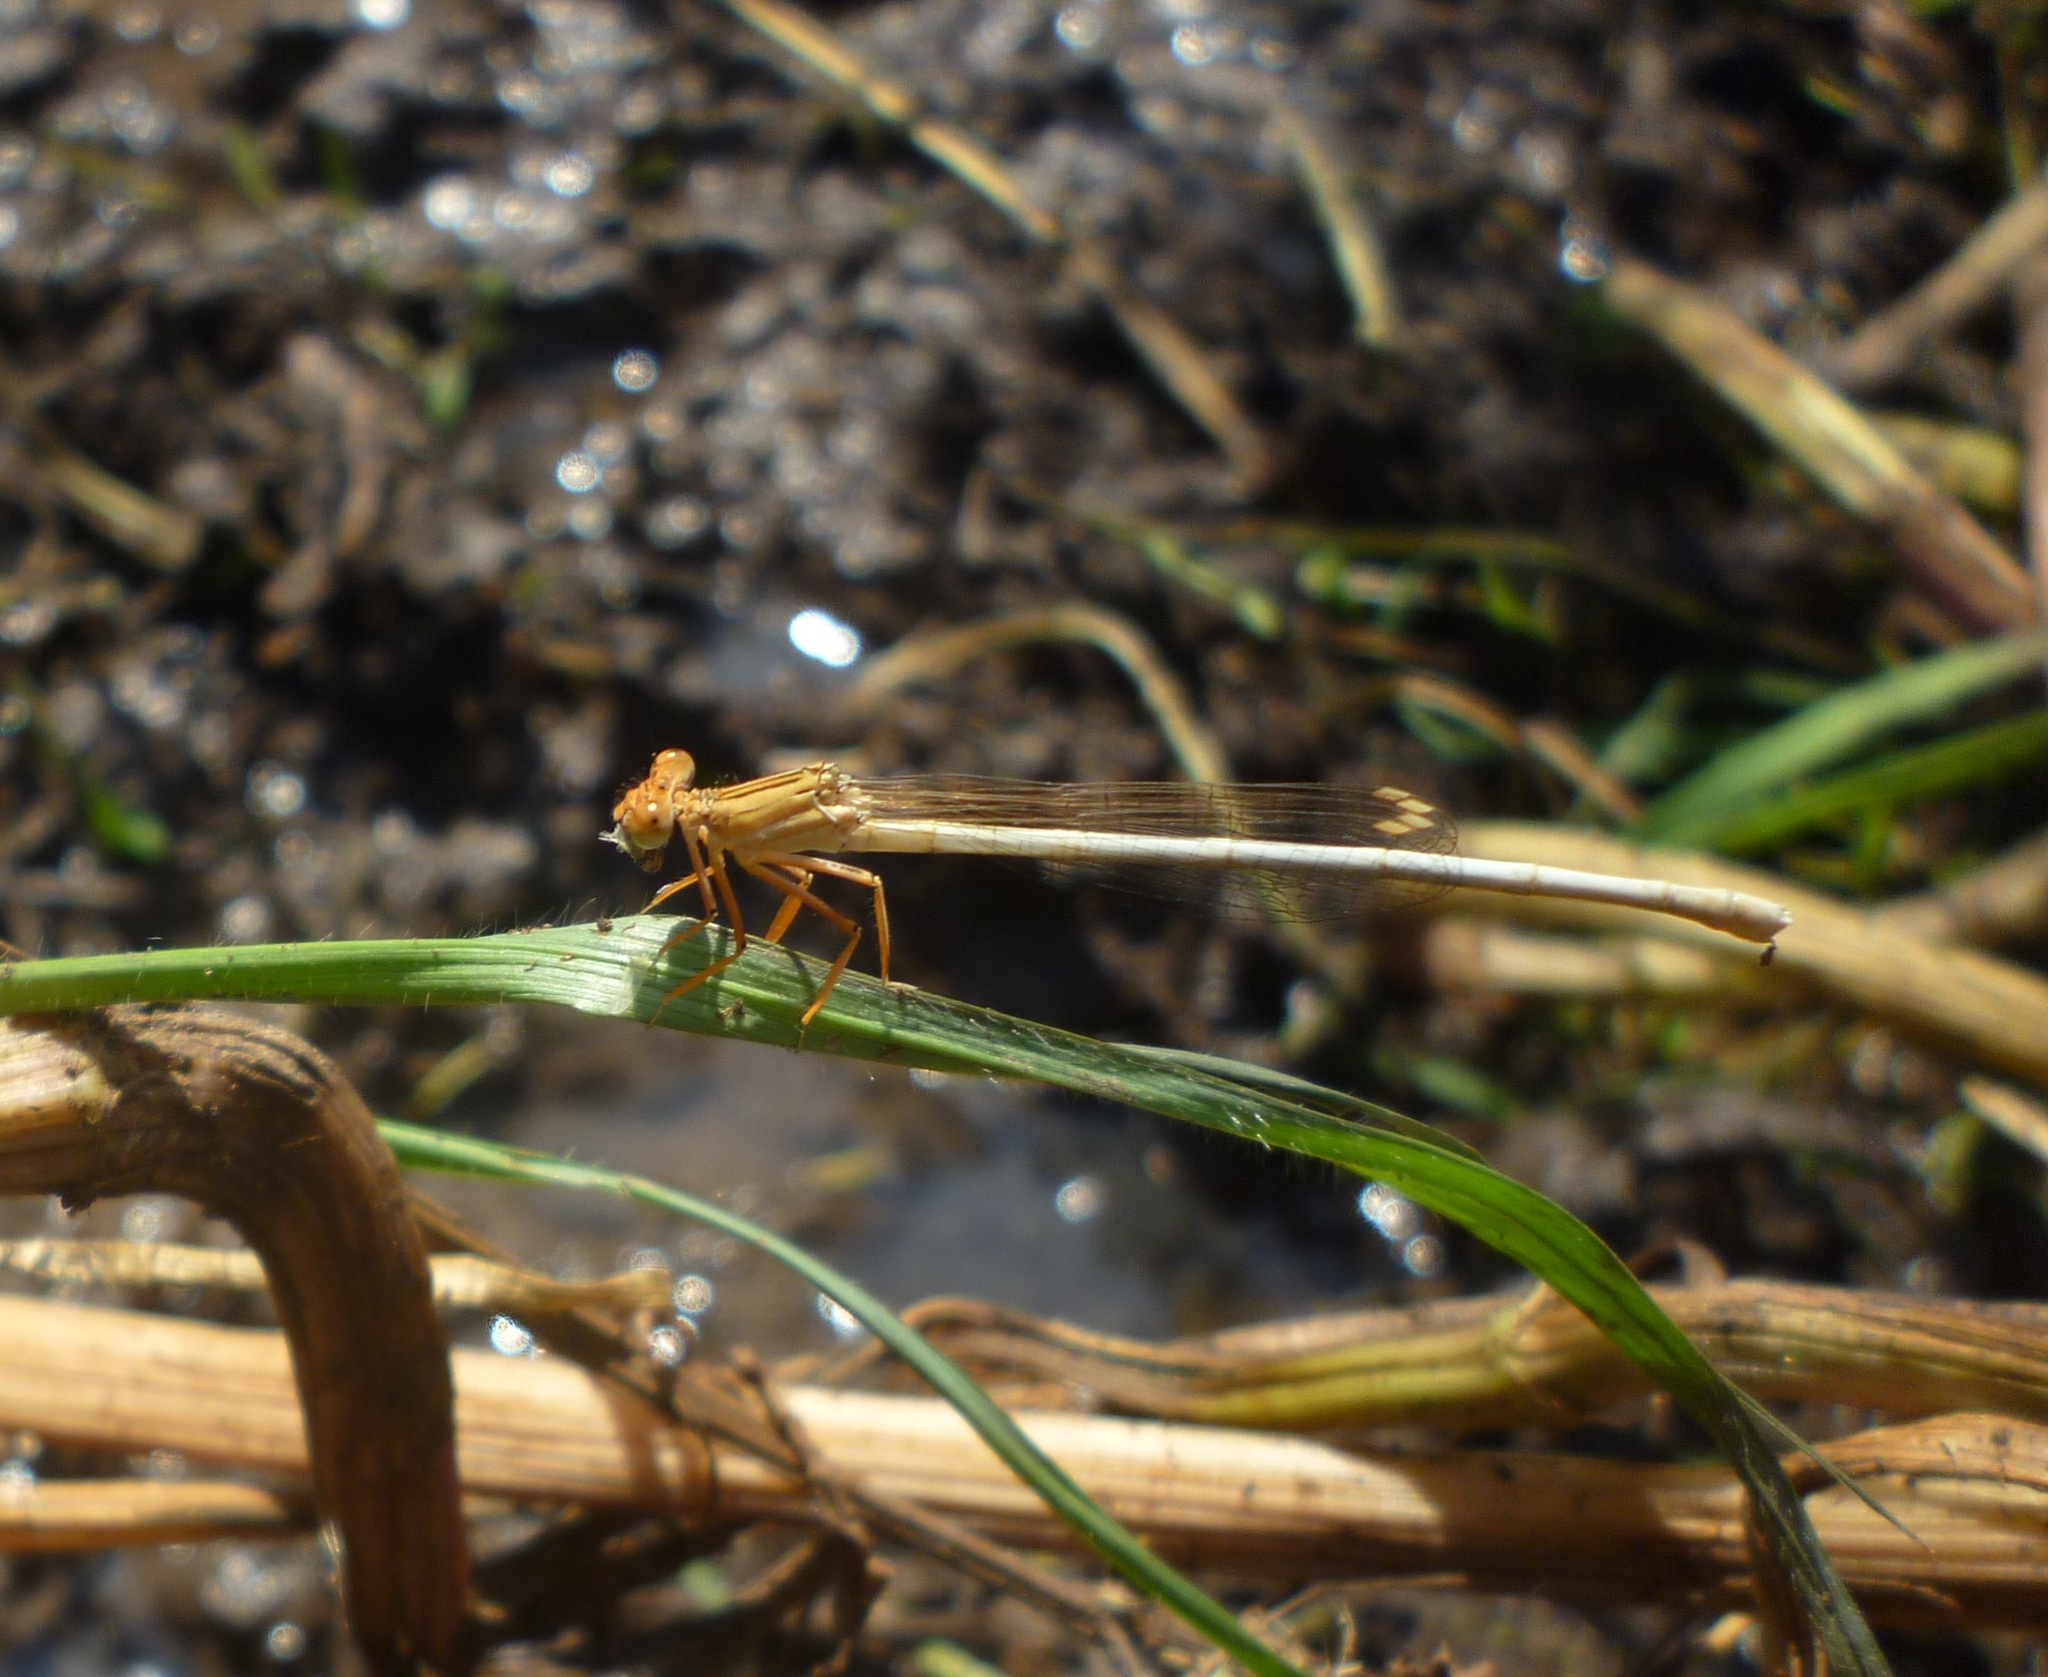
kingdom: Animalia
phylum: Arthropoda
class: Insecta
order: Odonata
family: Platycnemididae
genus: Platycnemis
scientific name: Platycnemis dealbata
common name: Ivory featherleg
